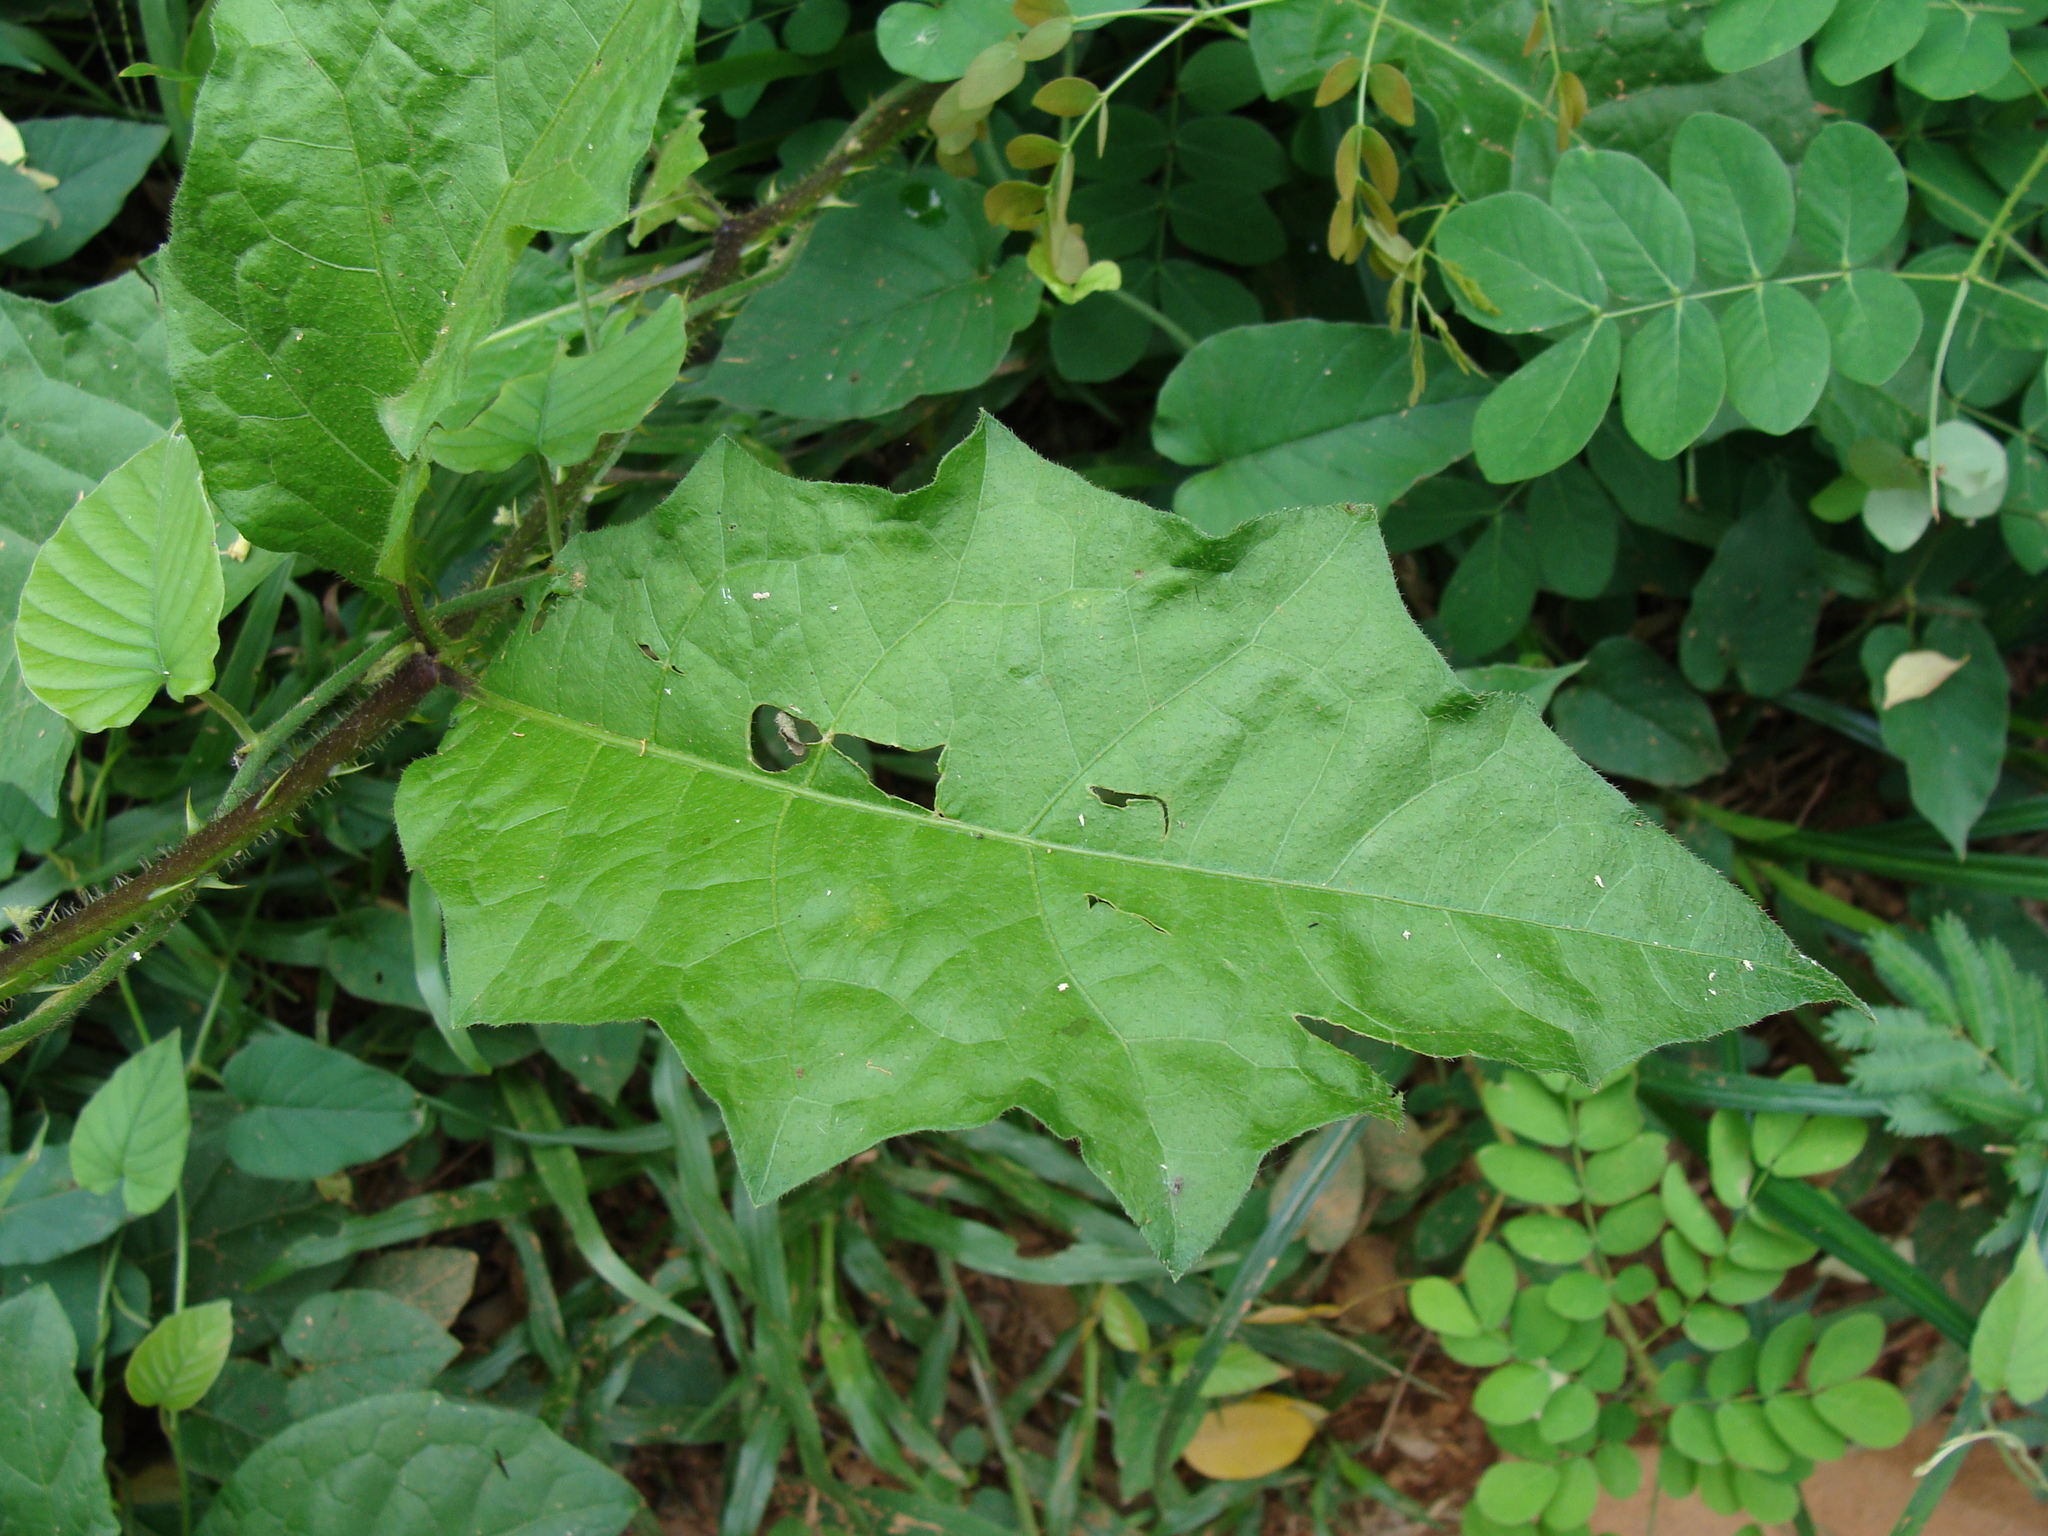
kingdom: Plantae
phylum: Tracheophyta
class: Magnoliopsida
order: Solanales
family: Solanaceae
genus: Solanum
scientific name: Solanum volubile
